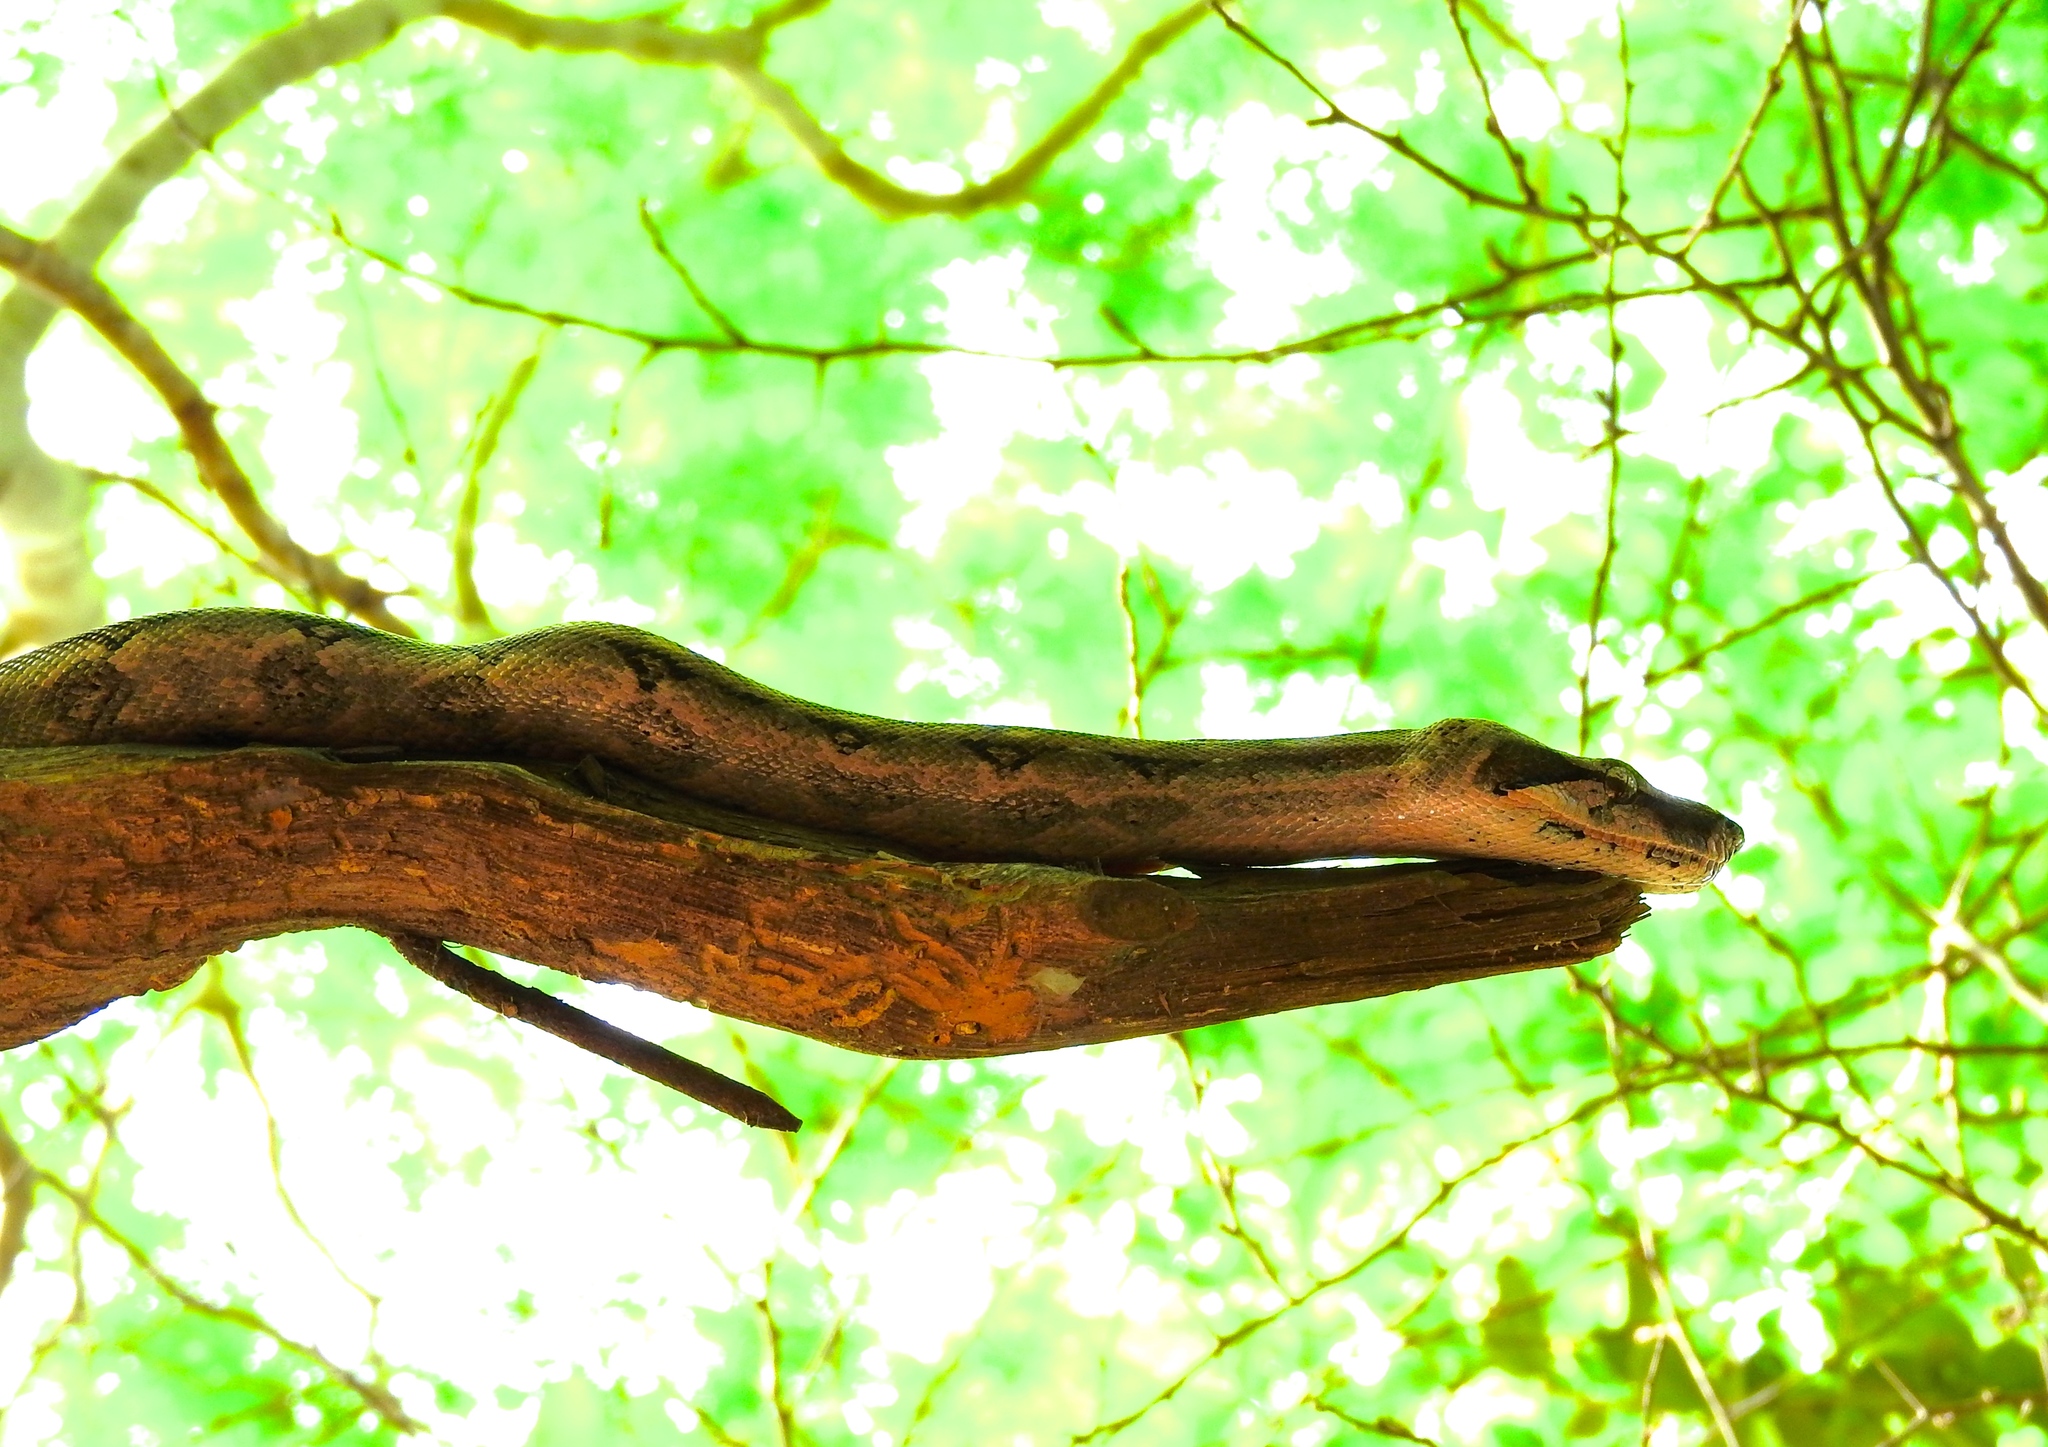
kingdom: Animalia
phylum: Chordata
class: Squamata
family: Boidae
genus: Boa
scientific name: Boa
